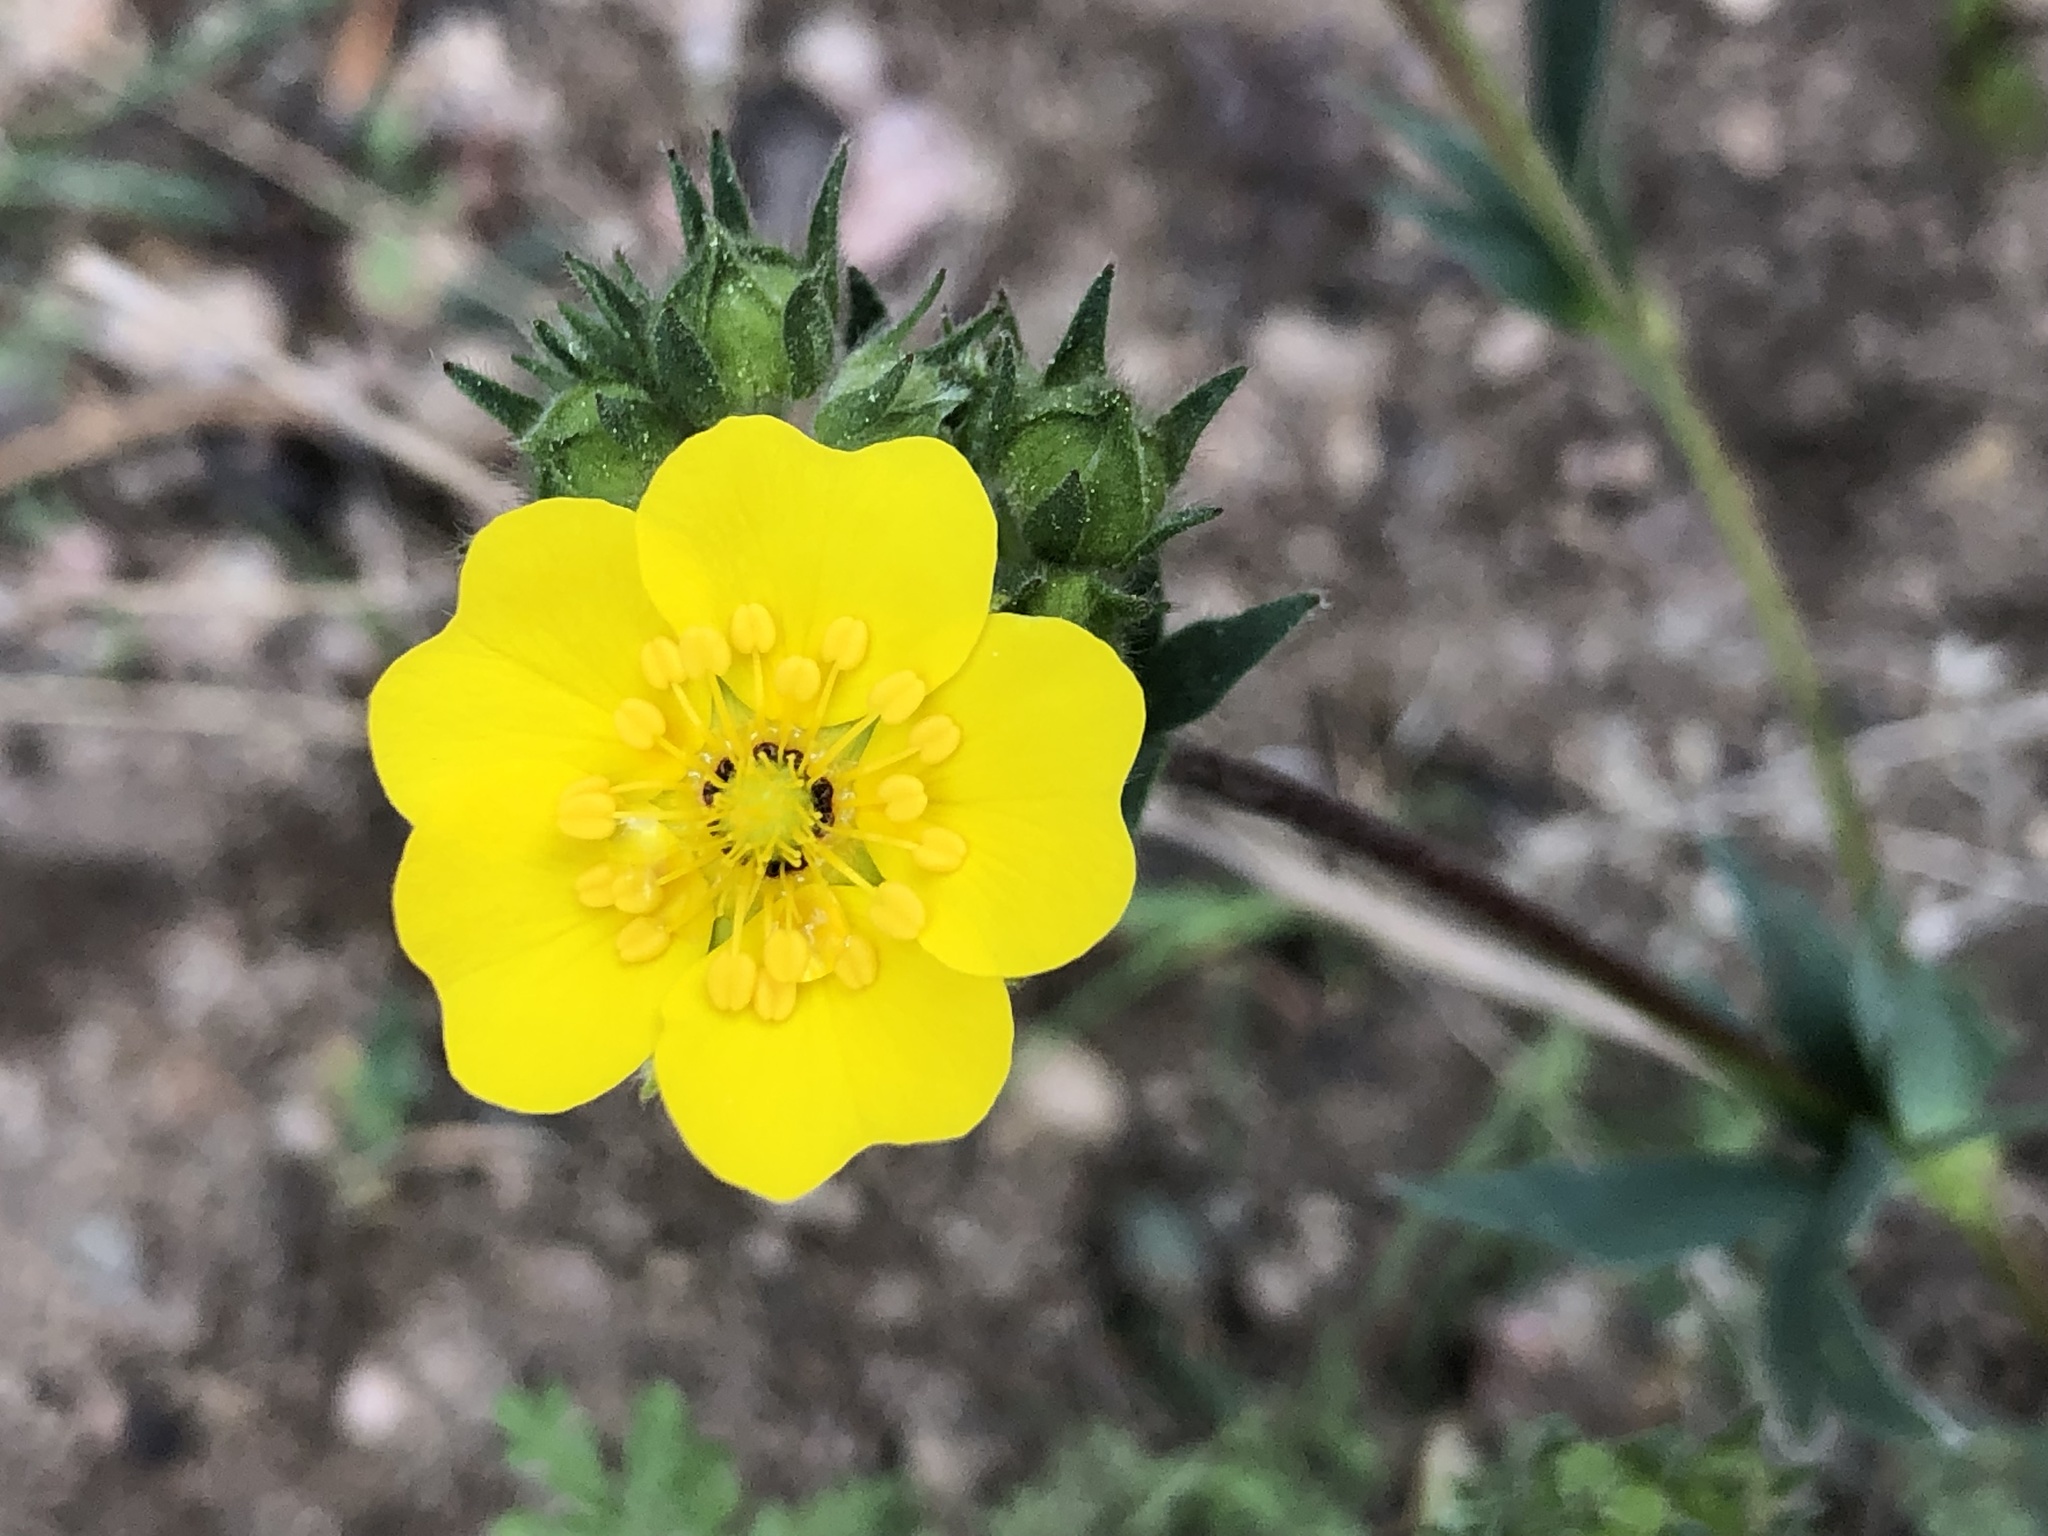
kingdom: Plantae
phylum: Tracheophyta
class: Magnoliopsida
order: Rosales
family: Rosaceae
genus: Potentilla
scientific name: Potentilla glaucophylla
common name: Blue-leaved cinquefoil
